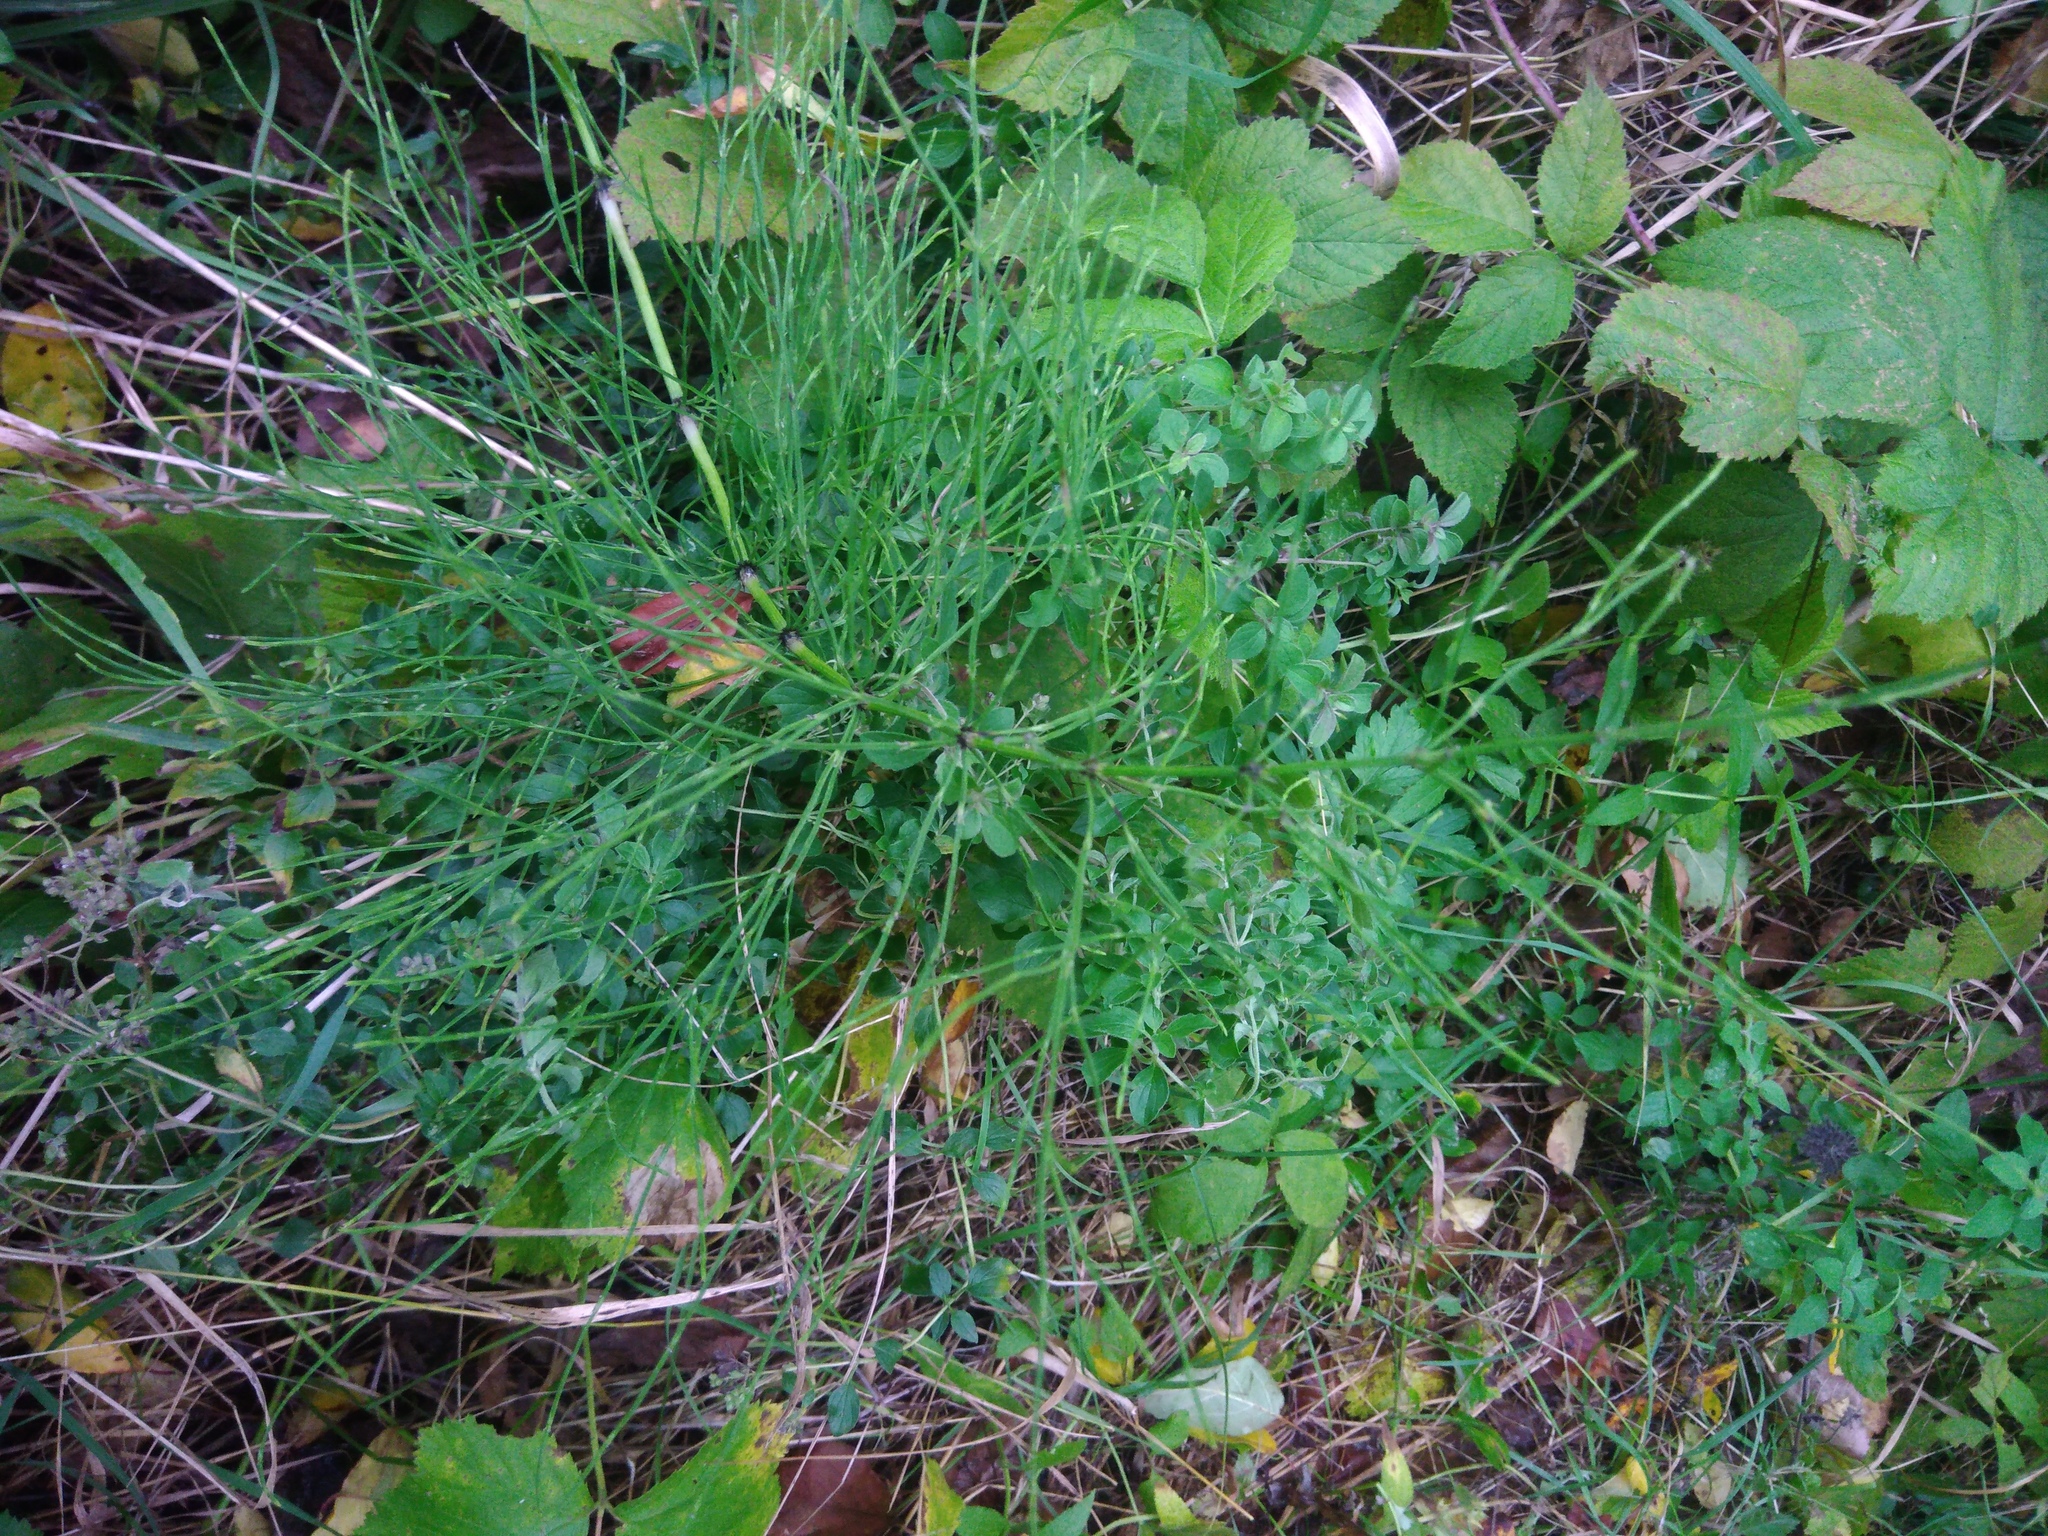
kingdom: Plantae
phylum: Tracheophyta
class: Polypodiopsida
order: Equisetales
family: Equisetaceae
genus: Equisetum
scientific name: Equisetum arvense
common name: Field horsetail
